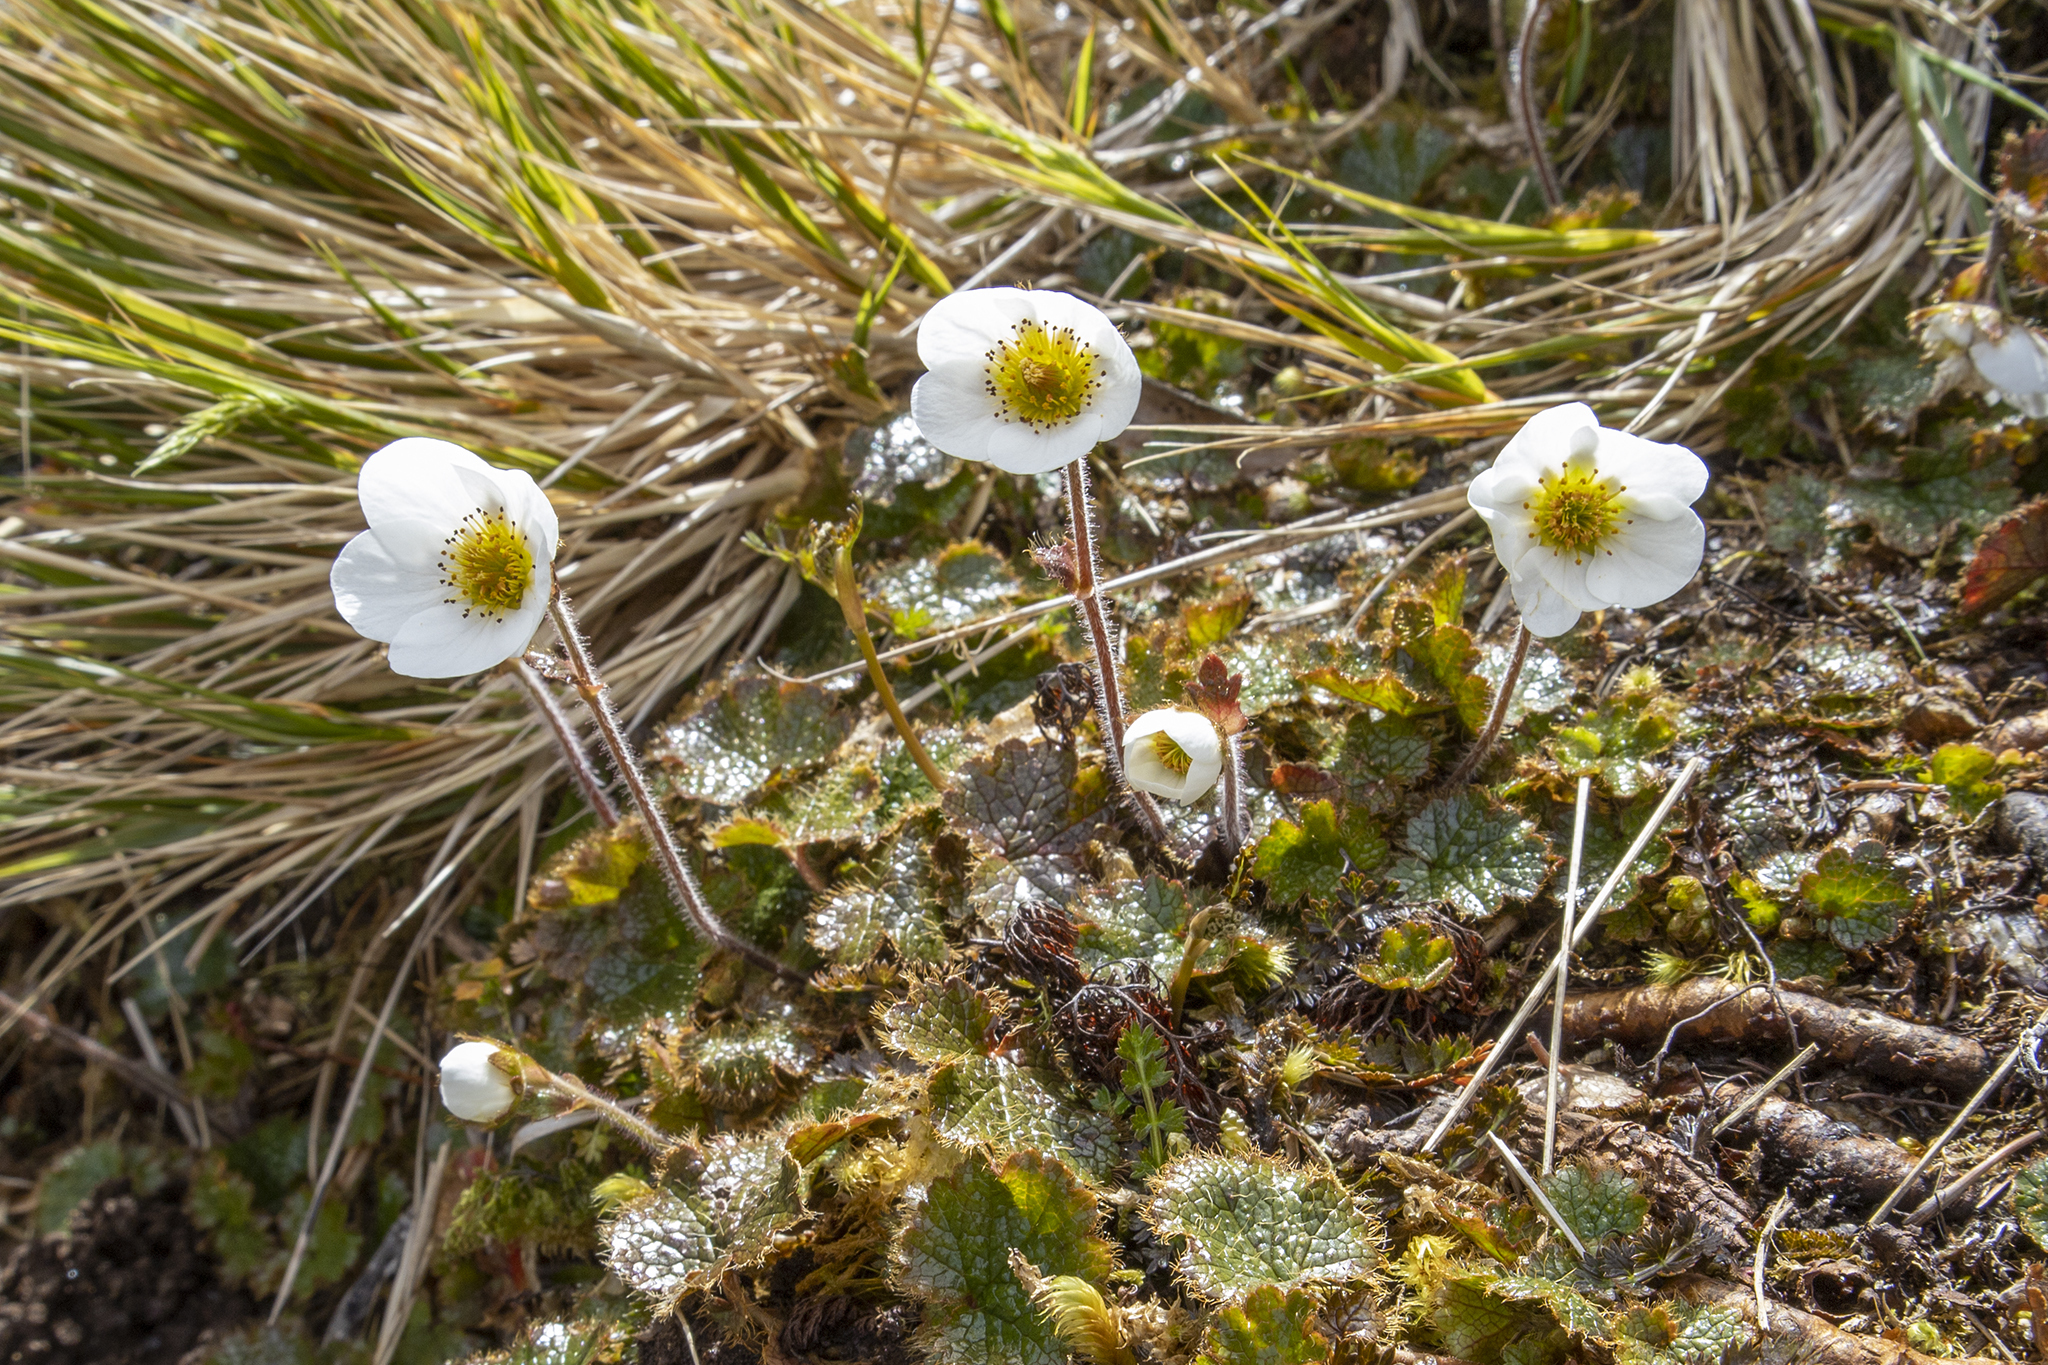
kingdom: Plantae
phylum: Tracheophyta
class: Magnoliopsida
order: Rosales
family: Rosaceae
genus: Geum
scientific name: Geum uniflorum
